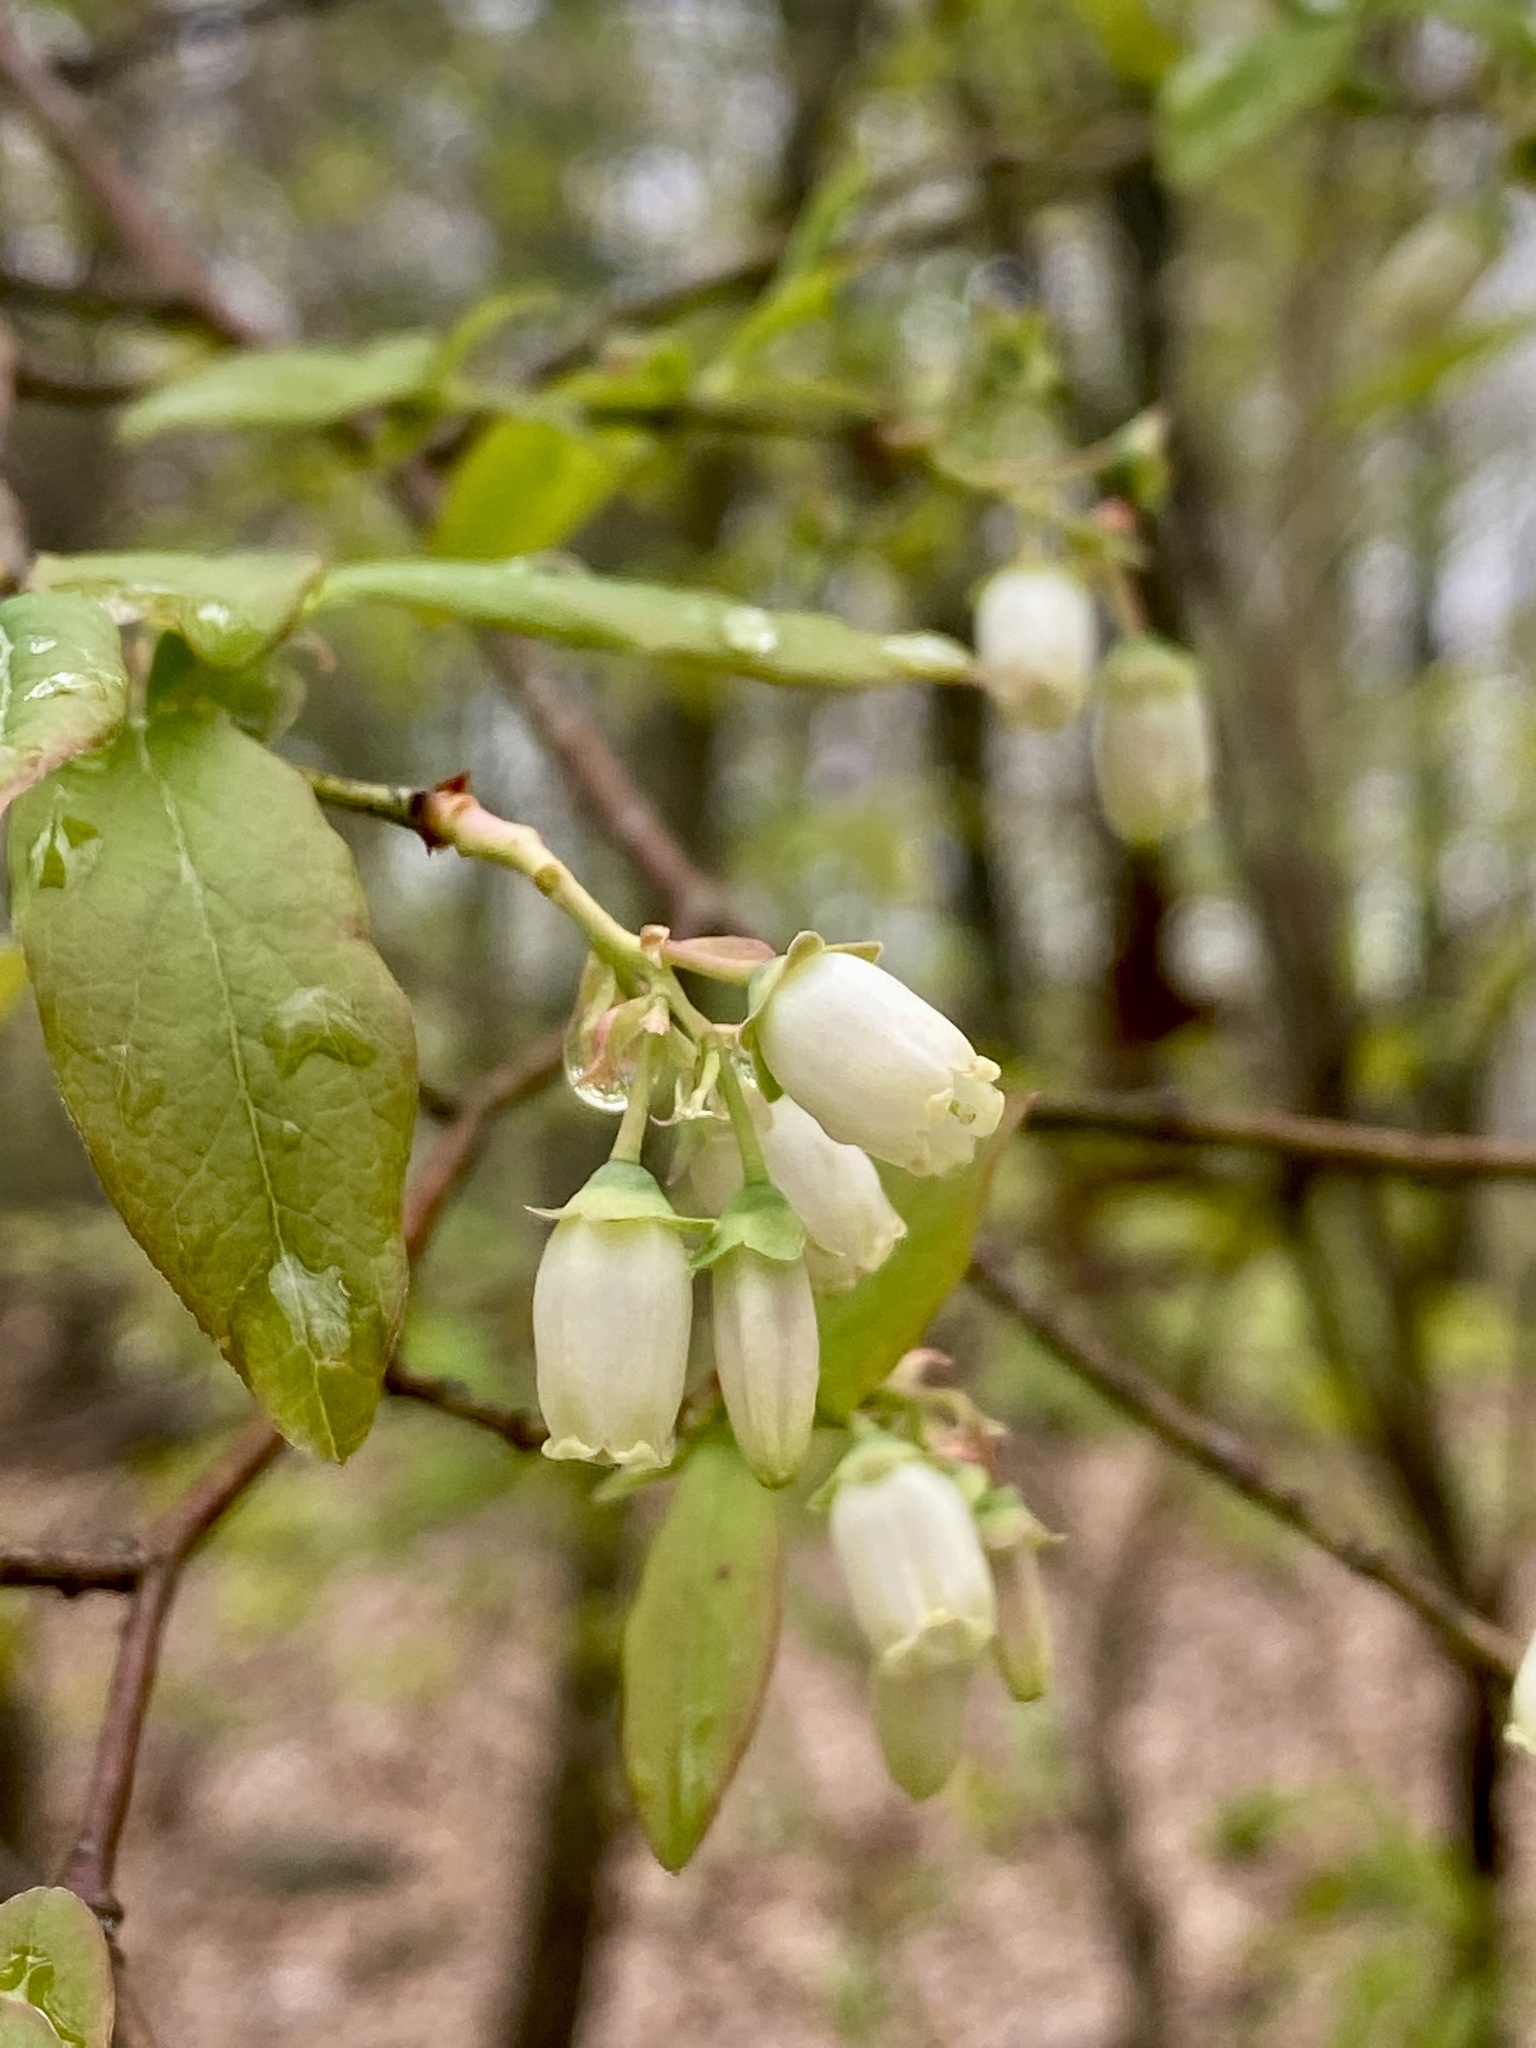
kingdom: Plantae
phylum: Tracheophyta
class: Magnoliopsida
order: Ericales
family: Ericaceae
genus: Vaccinium
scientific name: Vaccinium corymbosum
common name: Blueberry
